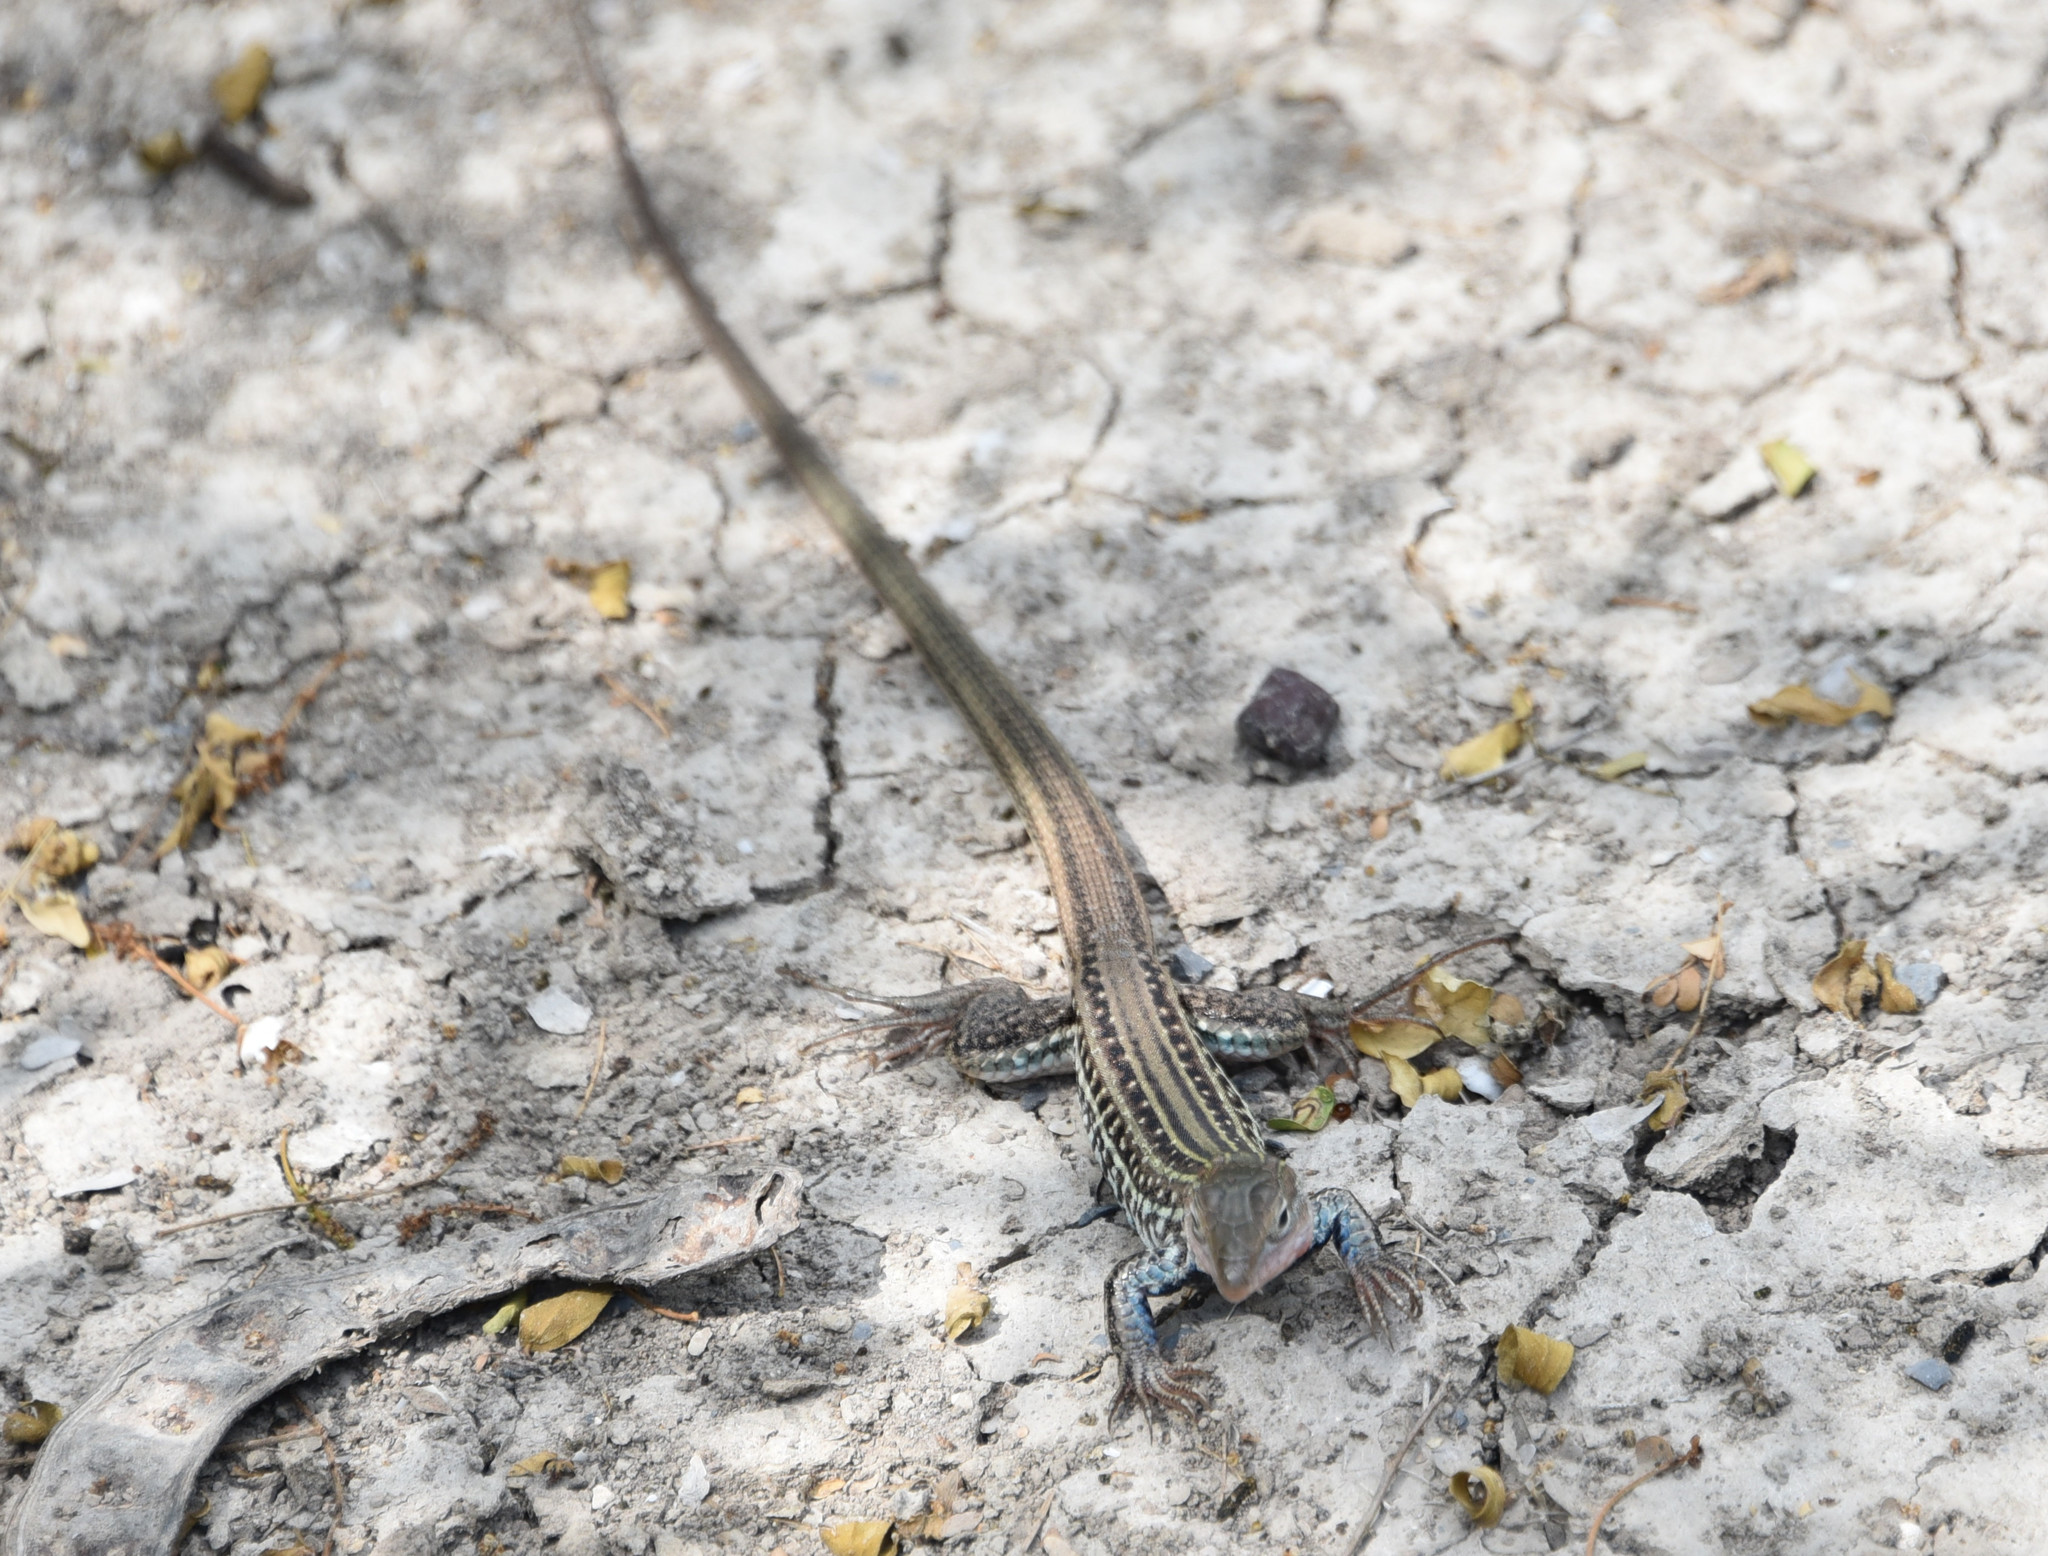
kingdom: Animalia
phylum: Chordata
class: Squamata
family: Teiidae
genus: Aspidoscelis
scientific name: Aspidoscelis gularis
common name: Eastern spotted whiptail
